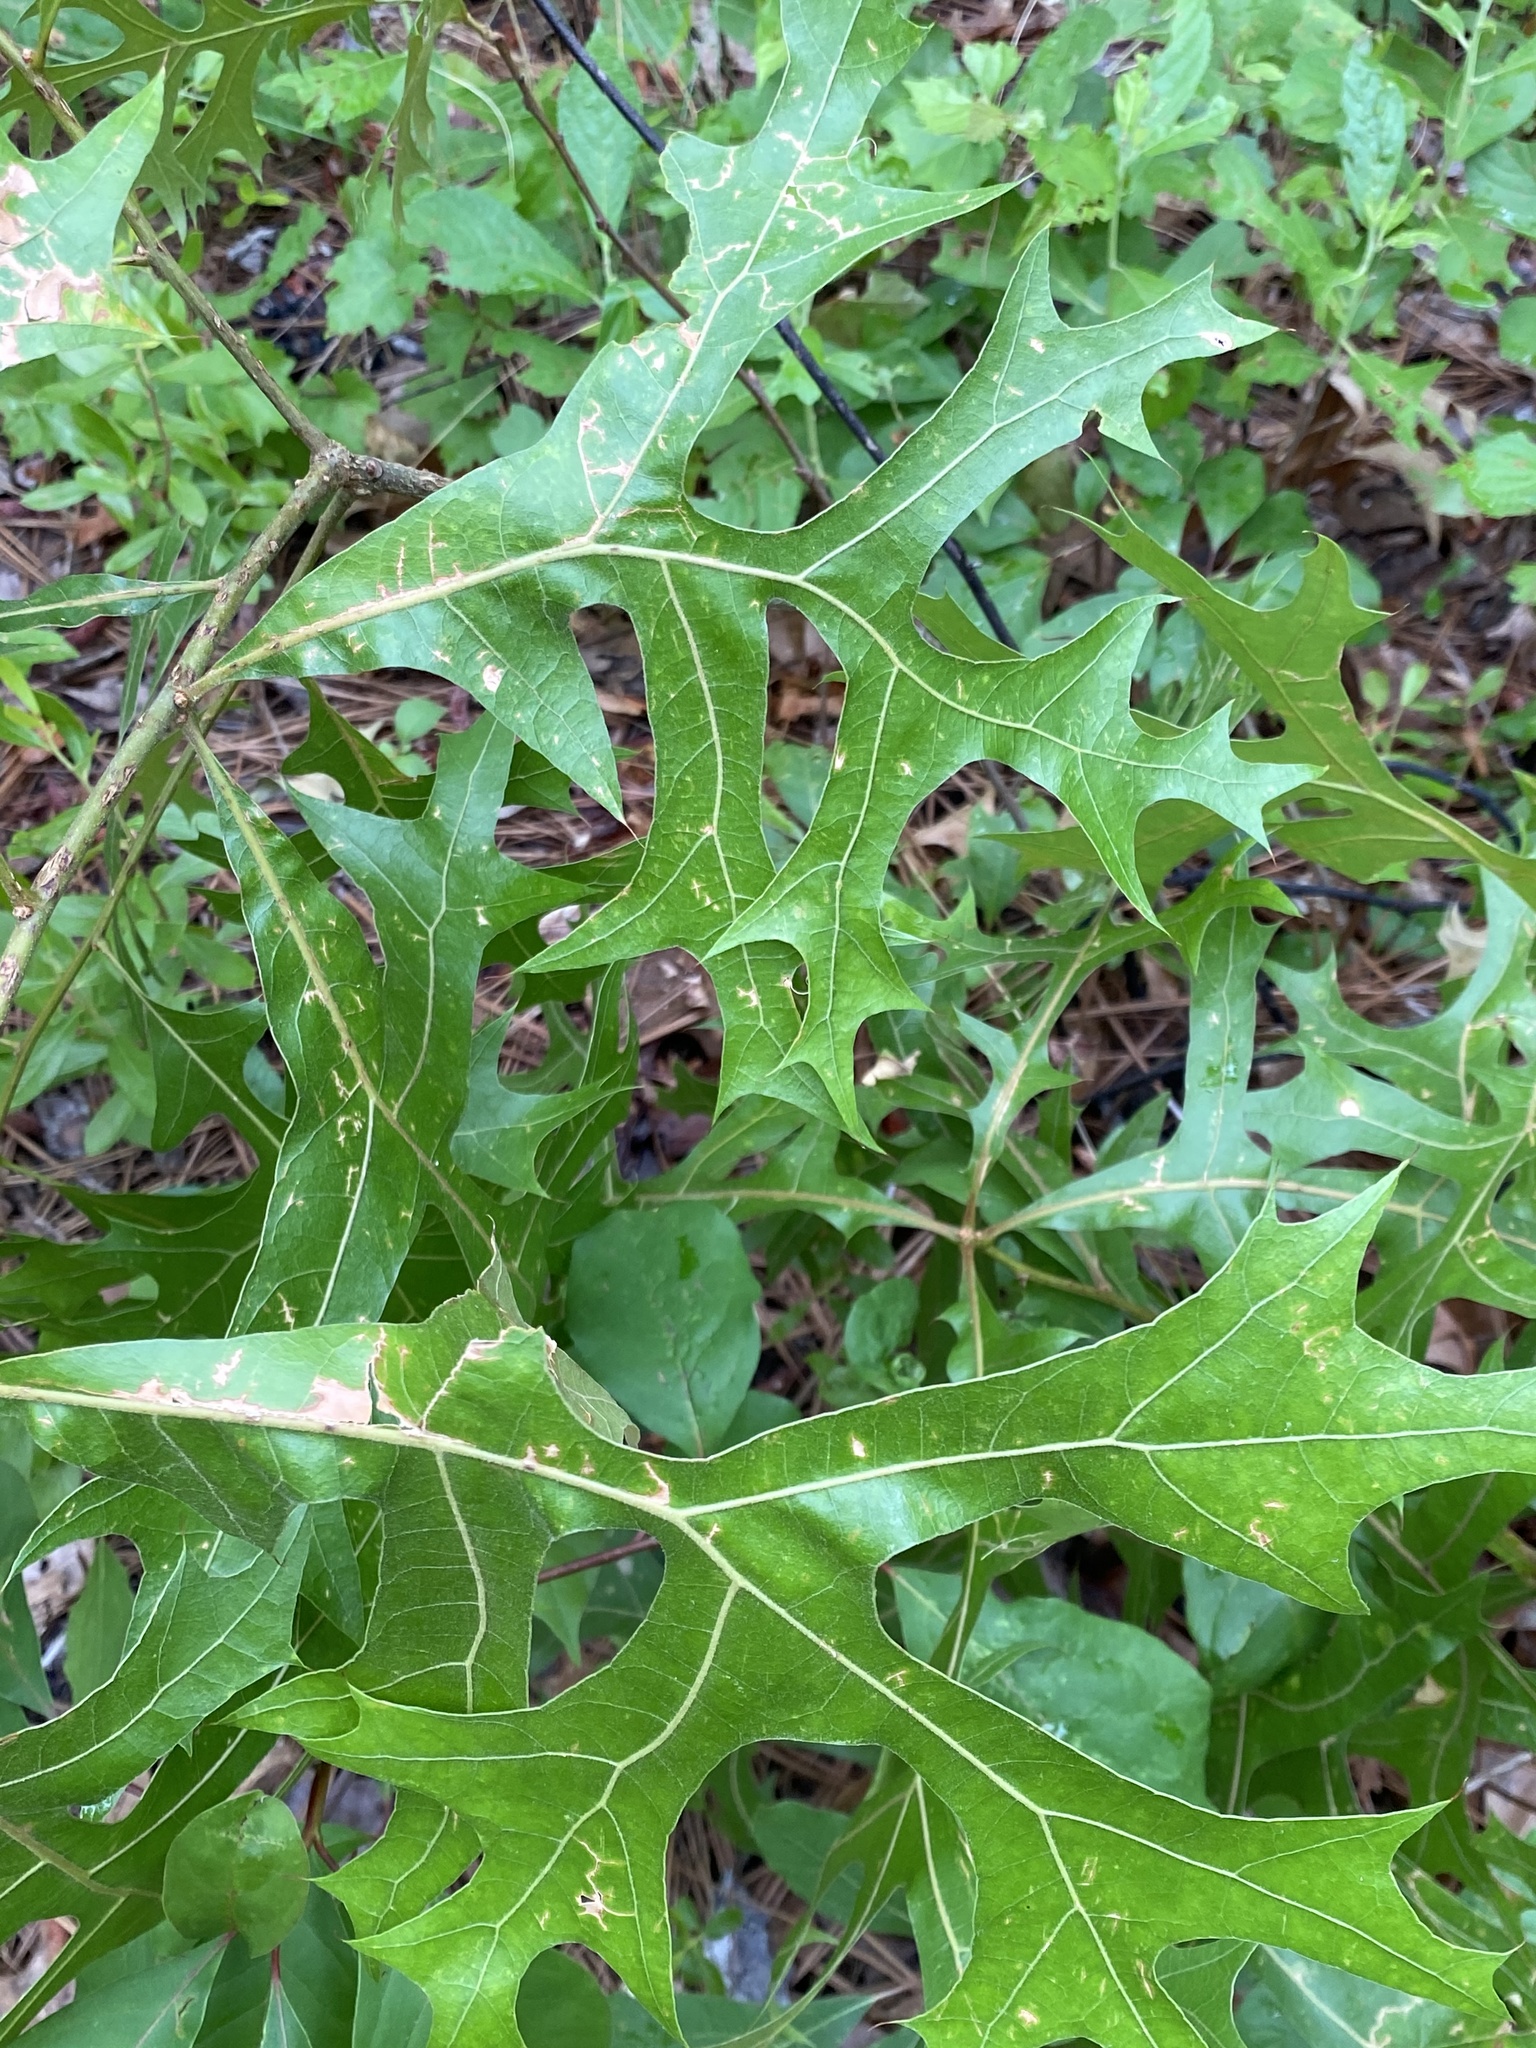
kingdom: Plantae
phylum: Tracheophyta
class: Magnoliopsida
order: Fagales
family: Fagaceae
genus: Quercus
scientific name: Quercus laevis
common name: Turkey oak
